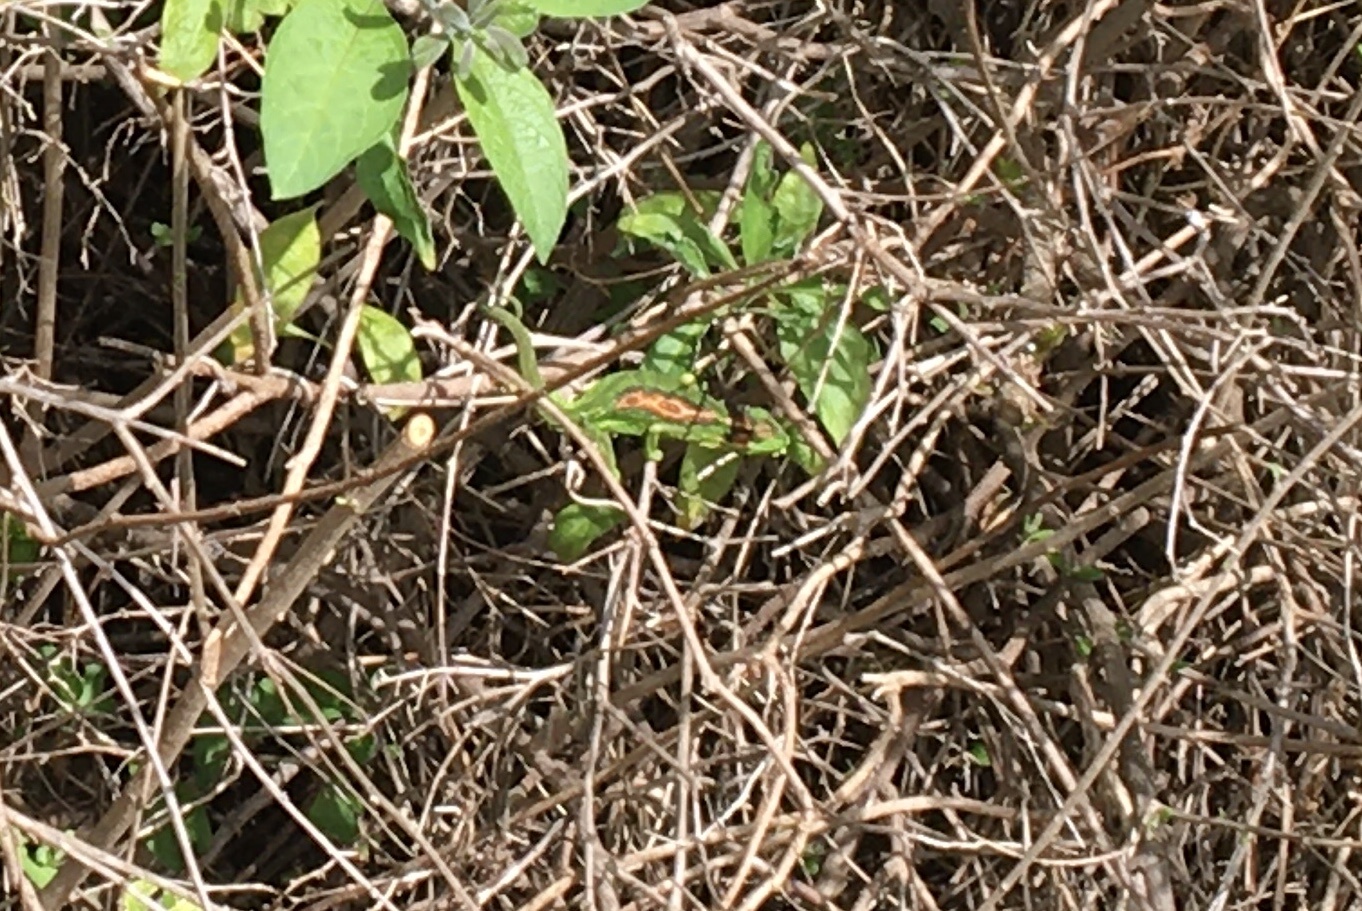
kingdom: Animalia
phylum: Chordata
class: Squamata
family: Chamaeleonidae
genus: Bradypodion
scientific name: Bradypodion pumilum
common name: Cape dwarf chameleon
